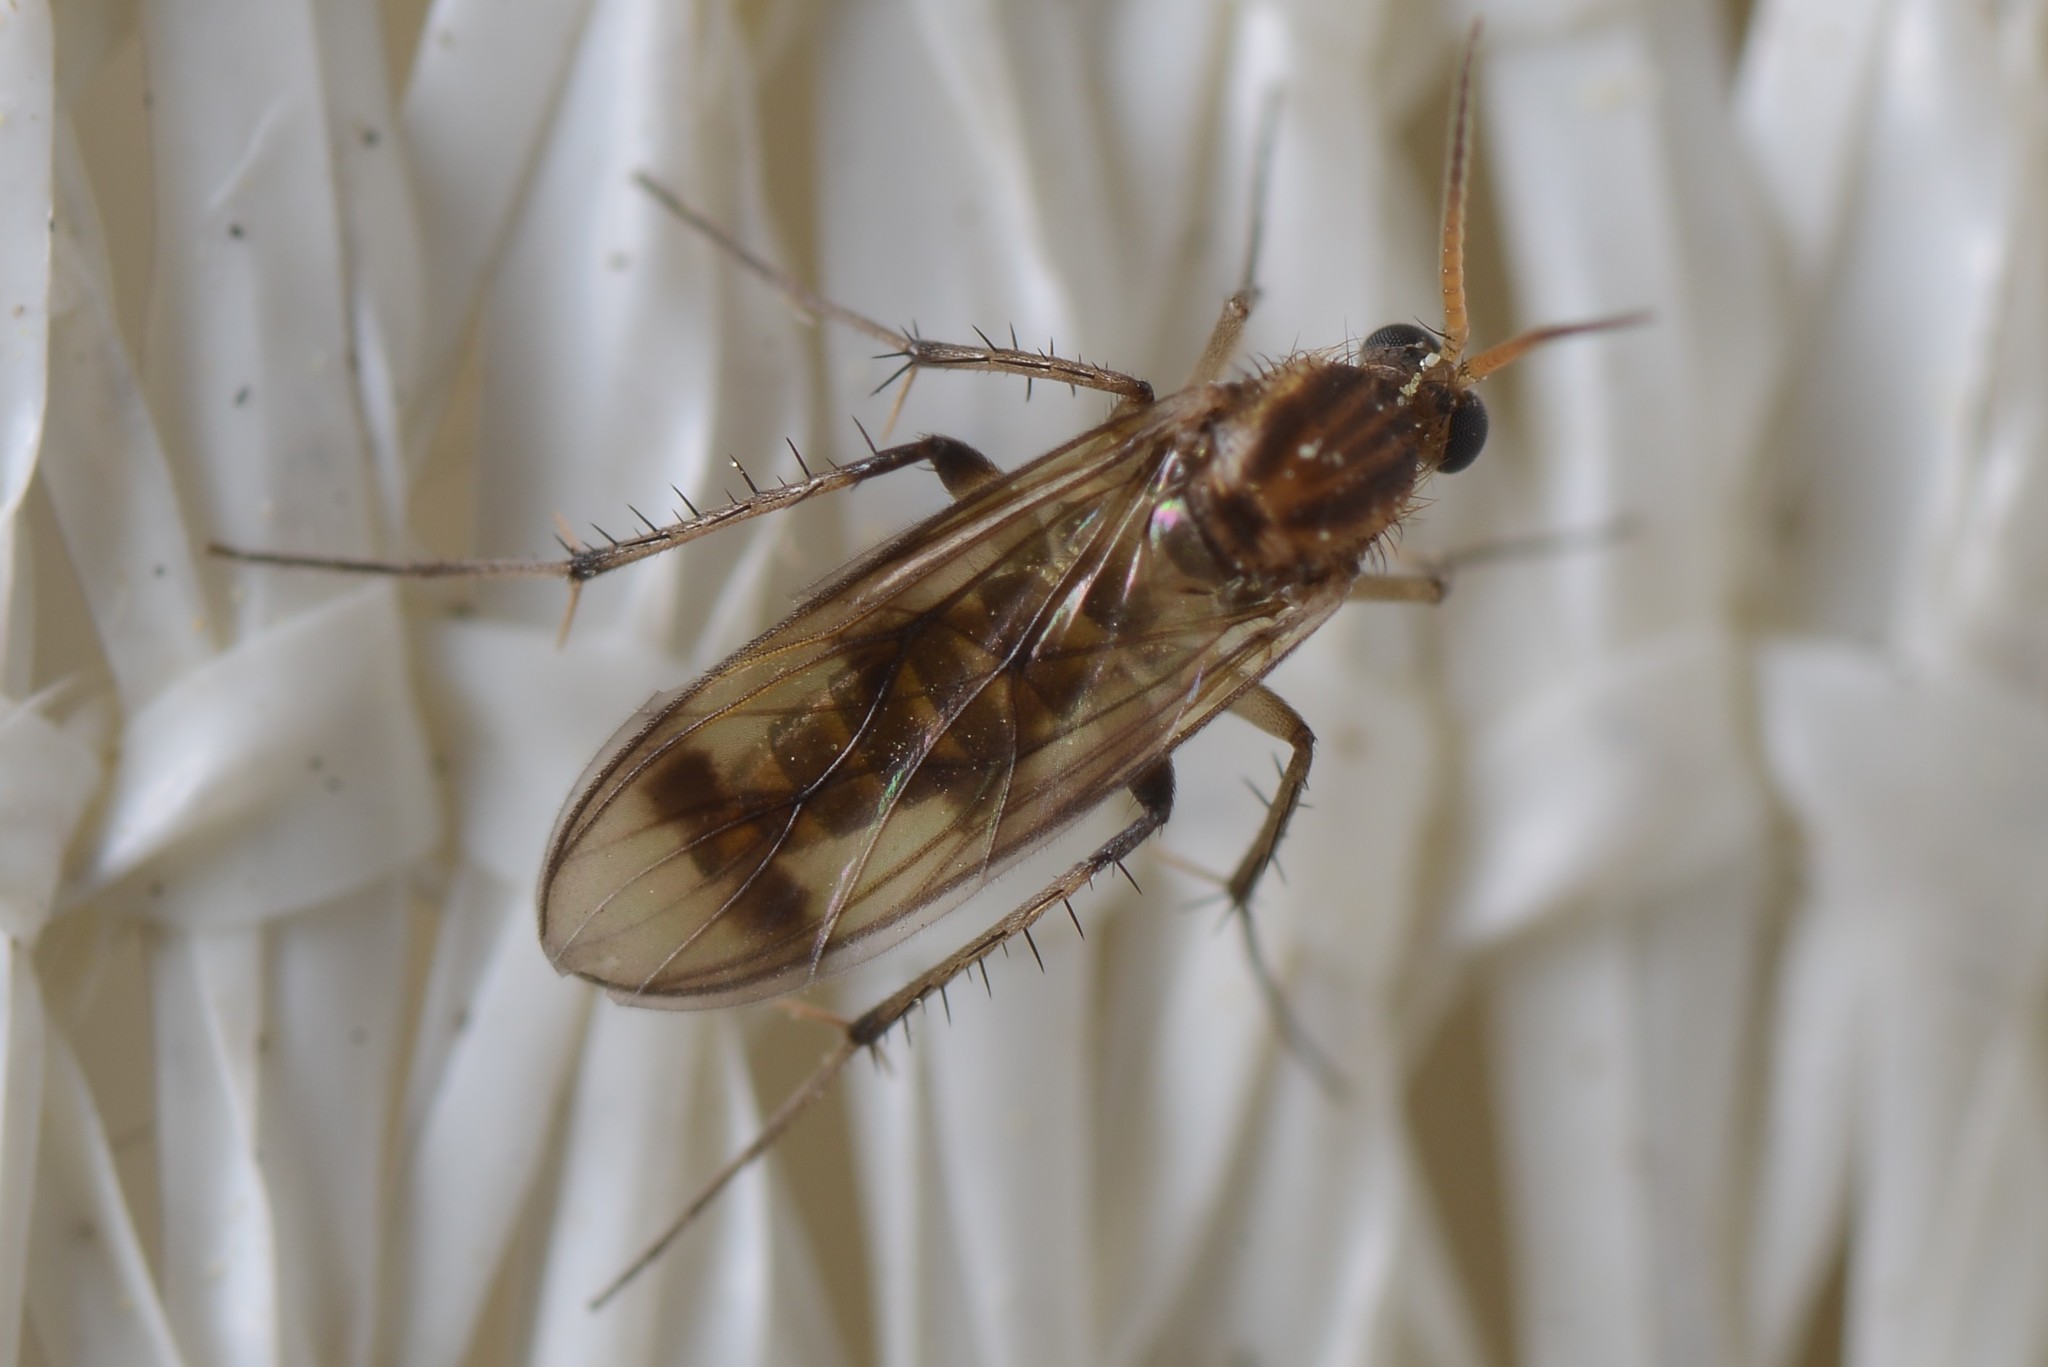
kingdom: Animalia
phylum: Arthropoda
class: Insecta
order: Diptera
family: Mycetophilidae
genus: Anomalomyia
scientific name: Anomalomyia guttata
